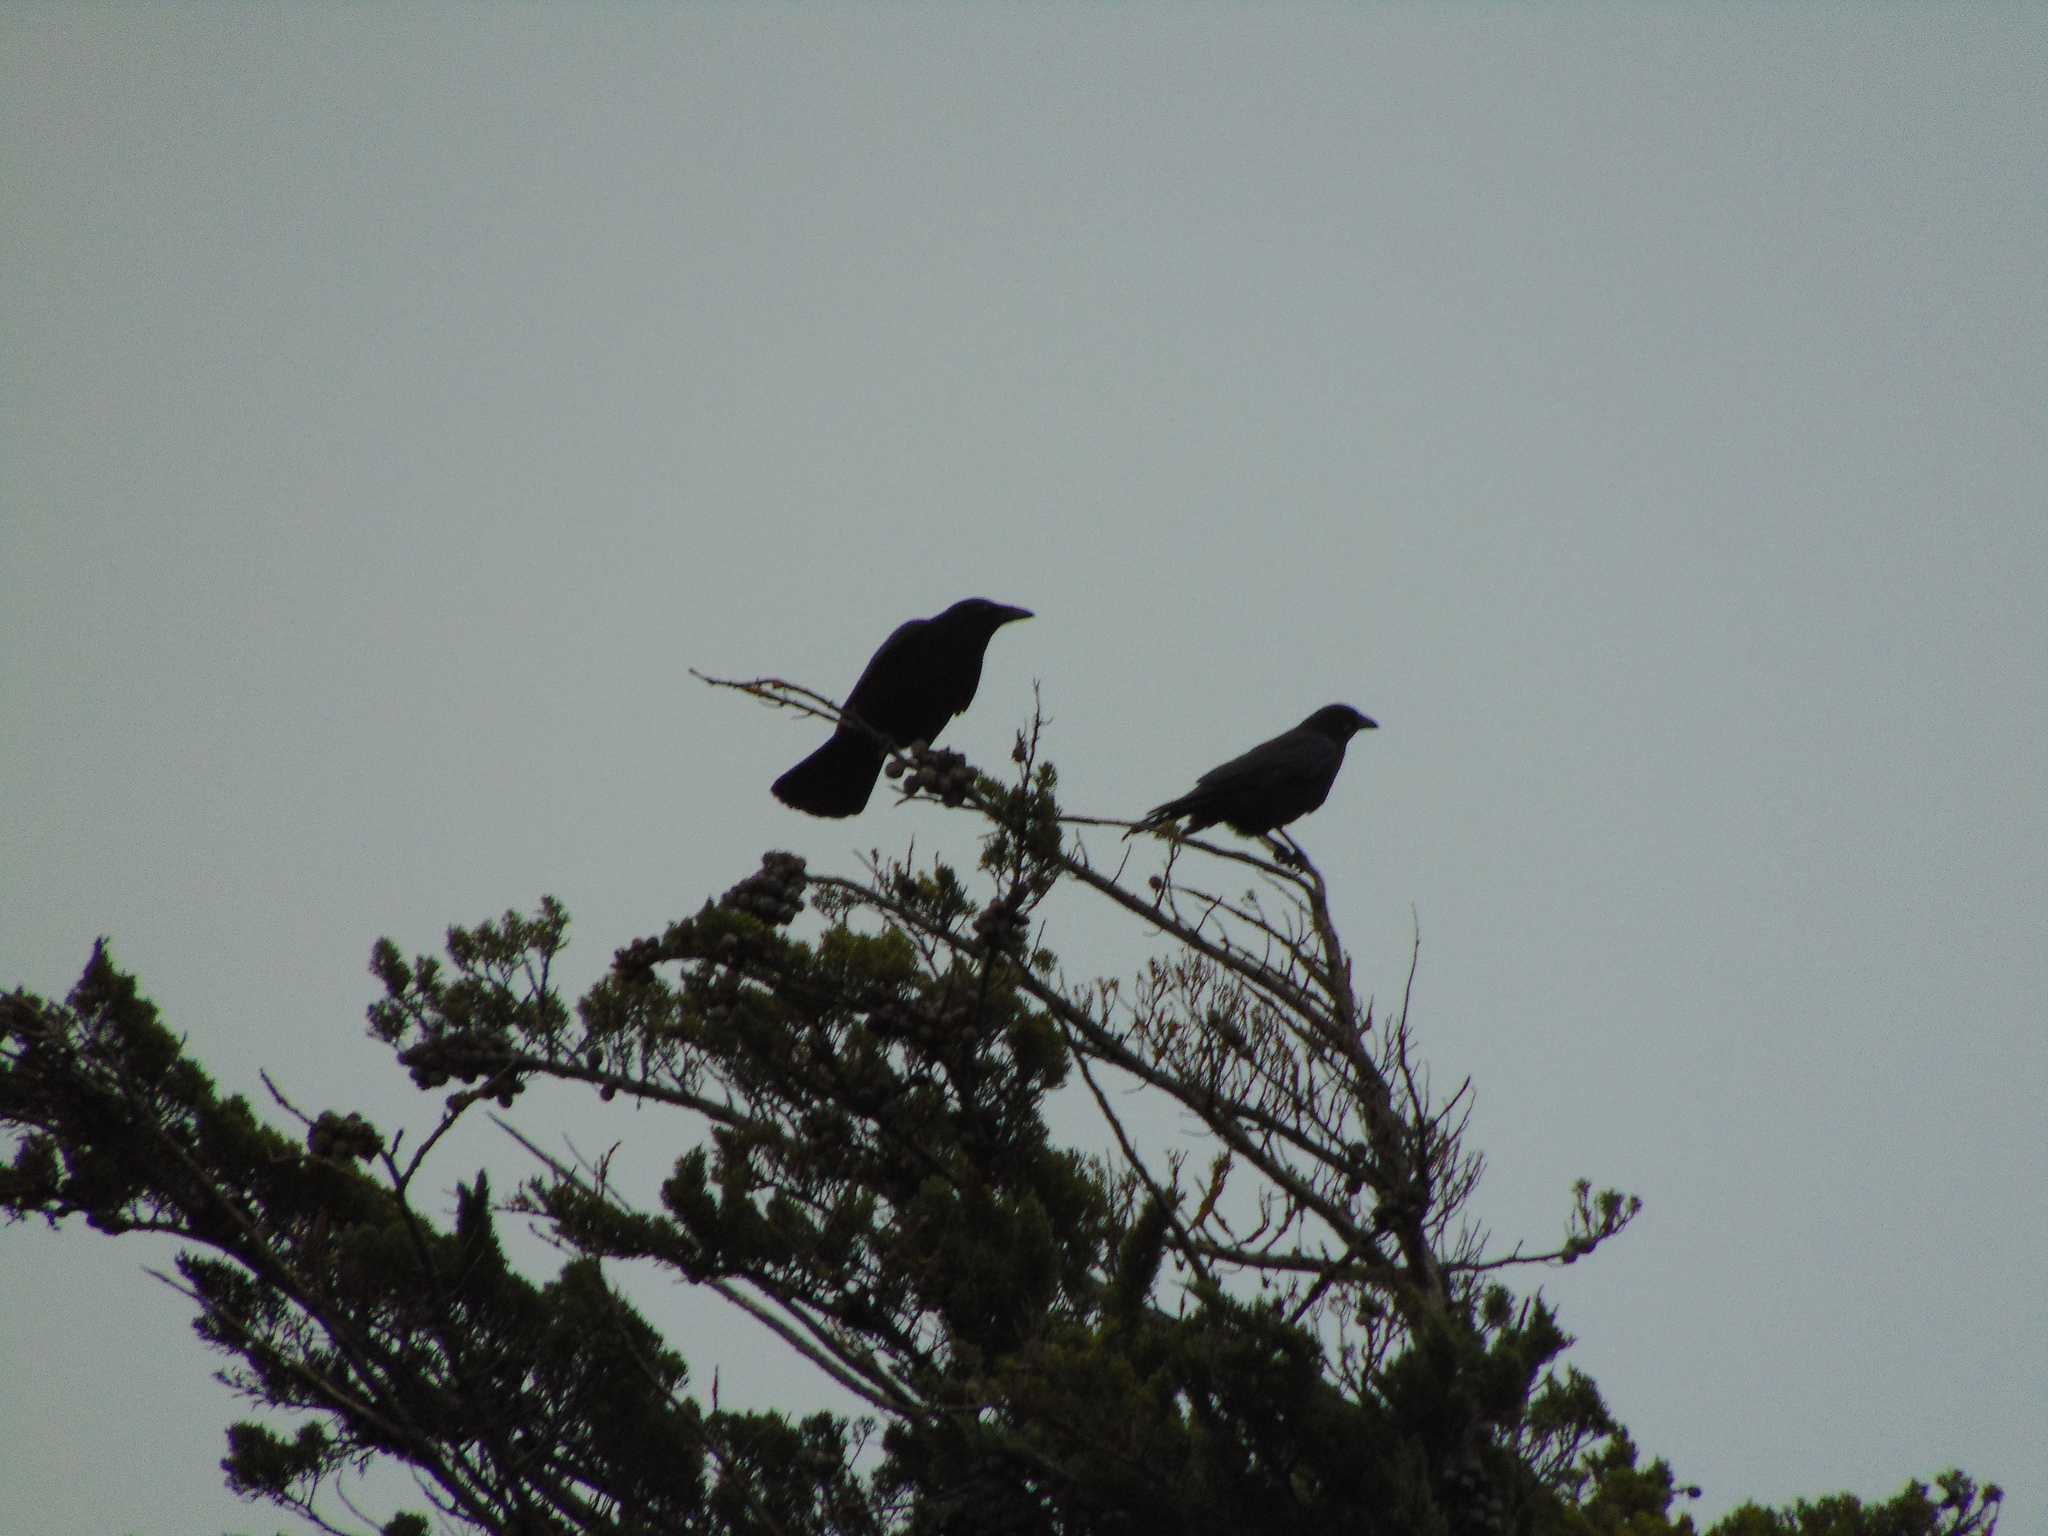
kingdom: Animalia
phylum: Chordata
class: Aves
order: Passeriformes
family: Corvidae
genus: Corvus
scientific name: Corvus corone
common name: Carrion crow
